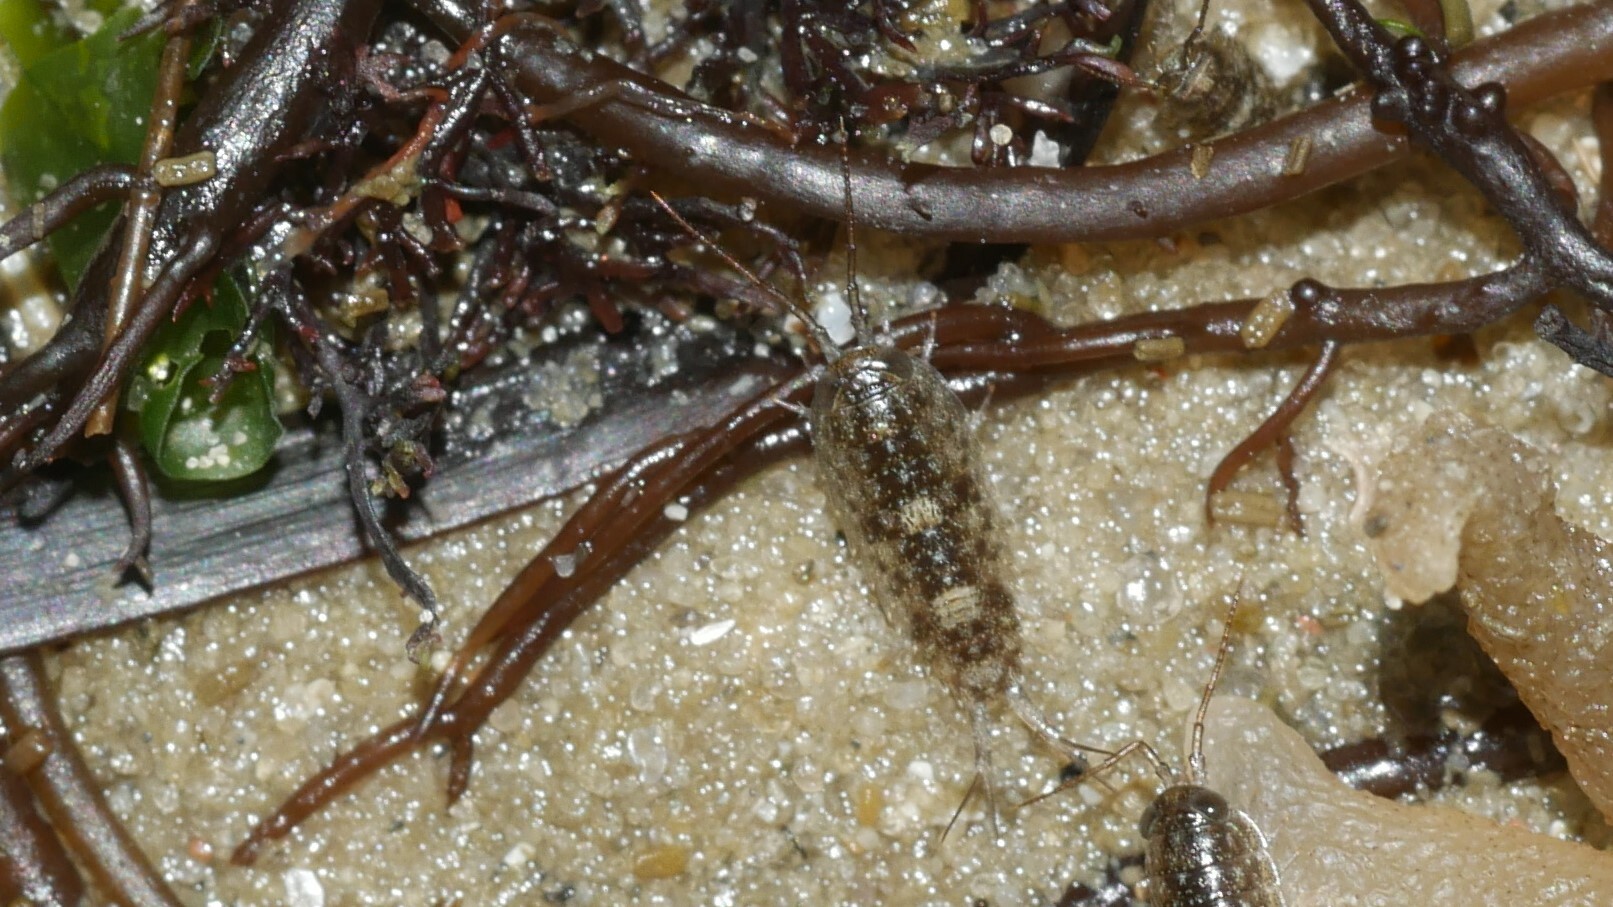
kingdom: Animalia
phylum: Arthropoda
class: Malacostraca
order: Isopoda
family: Ligiidae
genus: Ligia
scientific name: Ligia exotica
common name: Wharf roach
